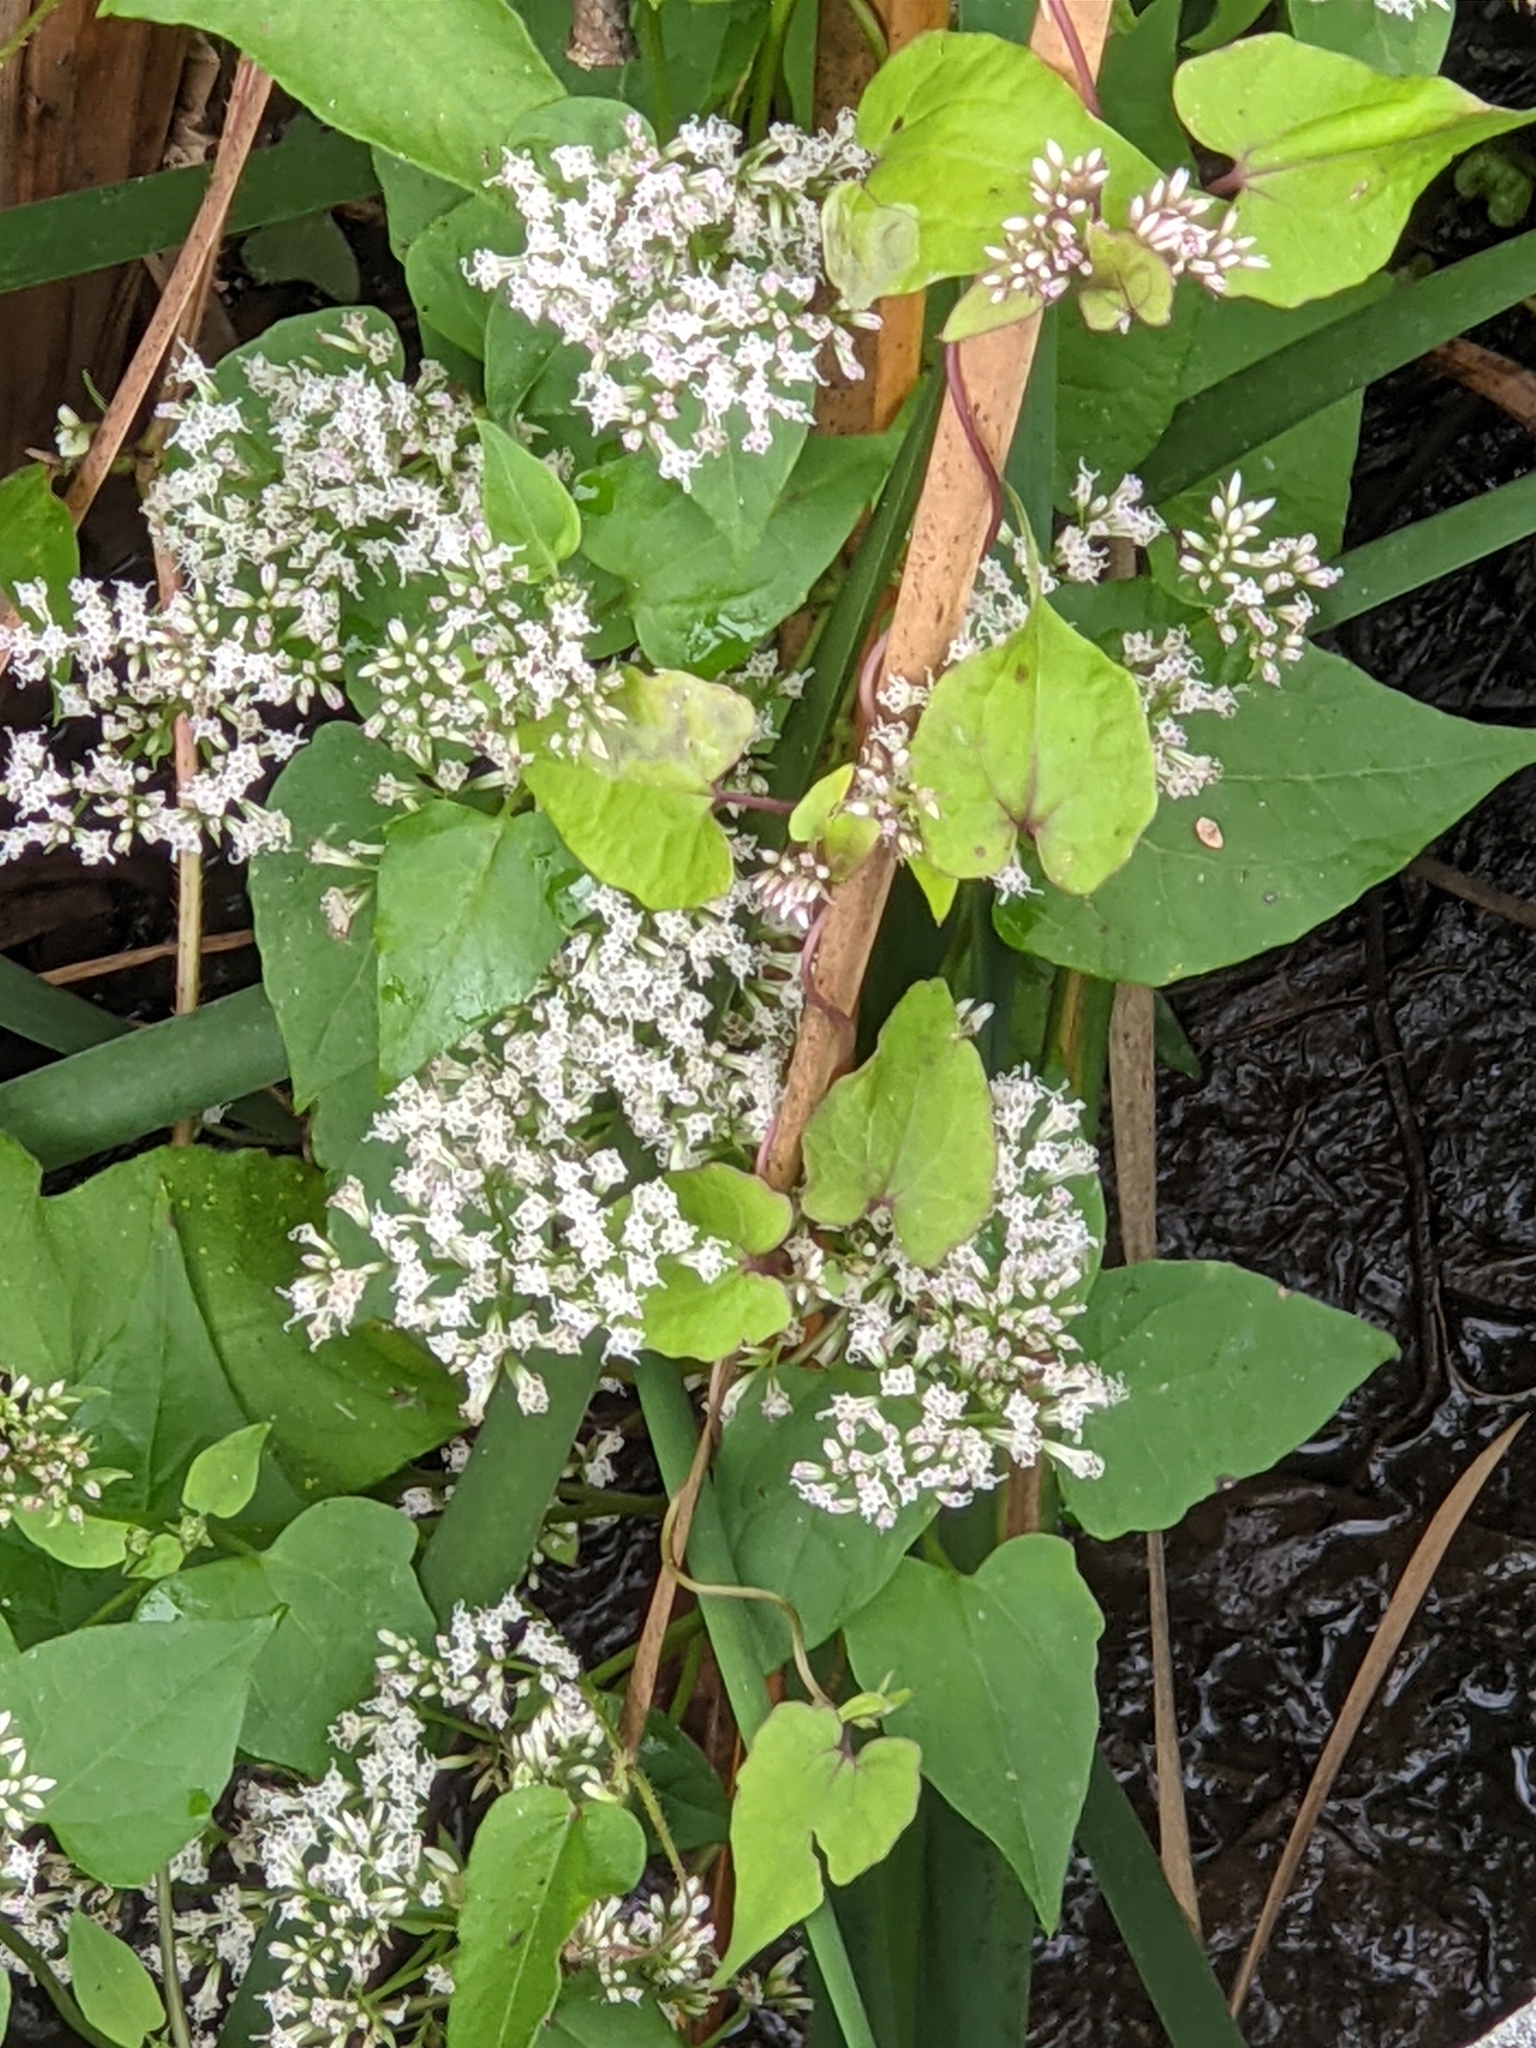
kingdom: Plantae
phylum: Tracheophyta
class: Magnoliopsida
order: Asterales
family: Asteraceae
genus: Mikania
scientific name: Mikania scandens
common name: Climbing hempvine
